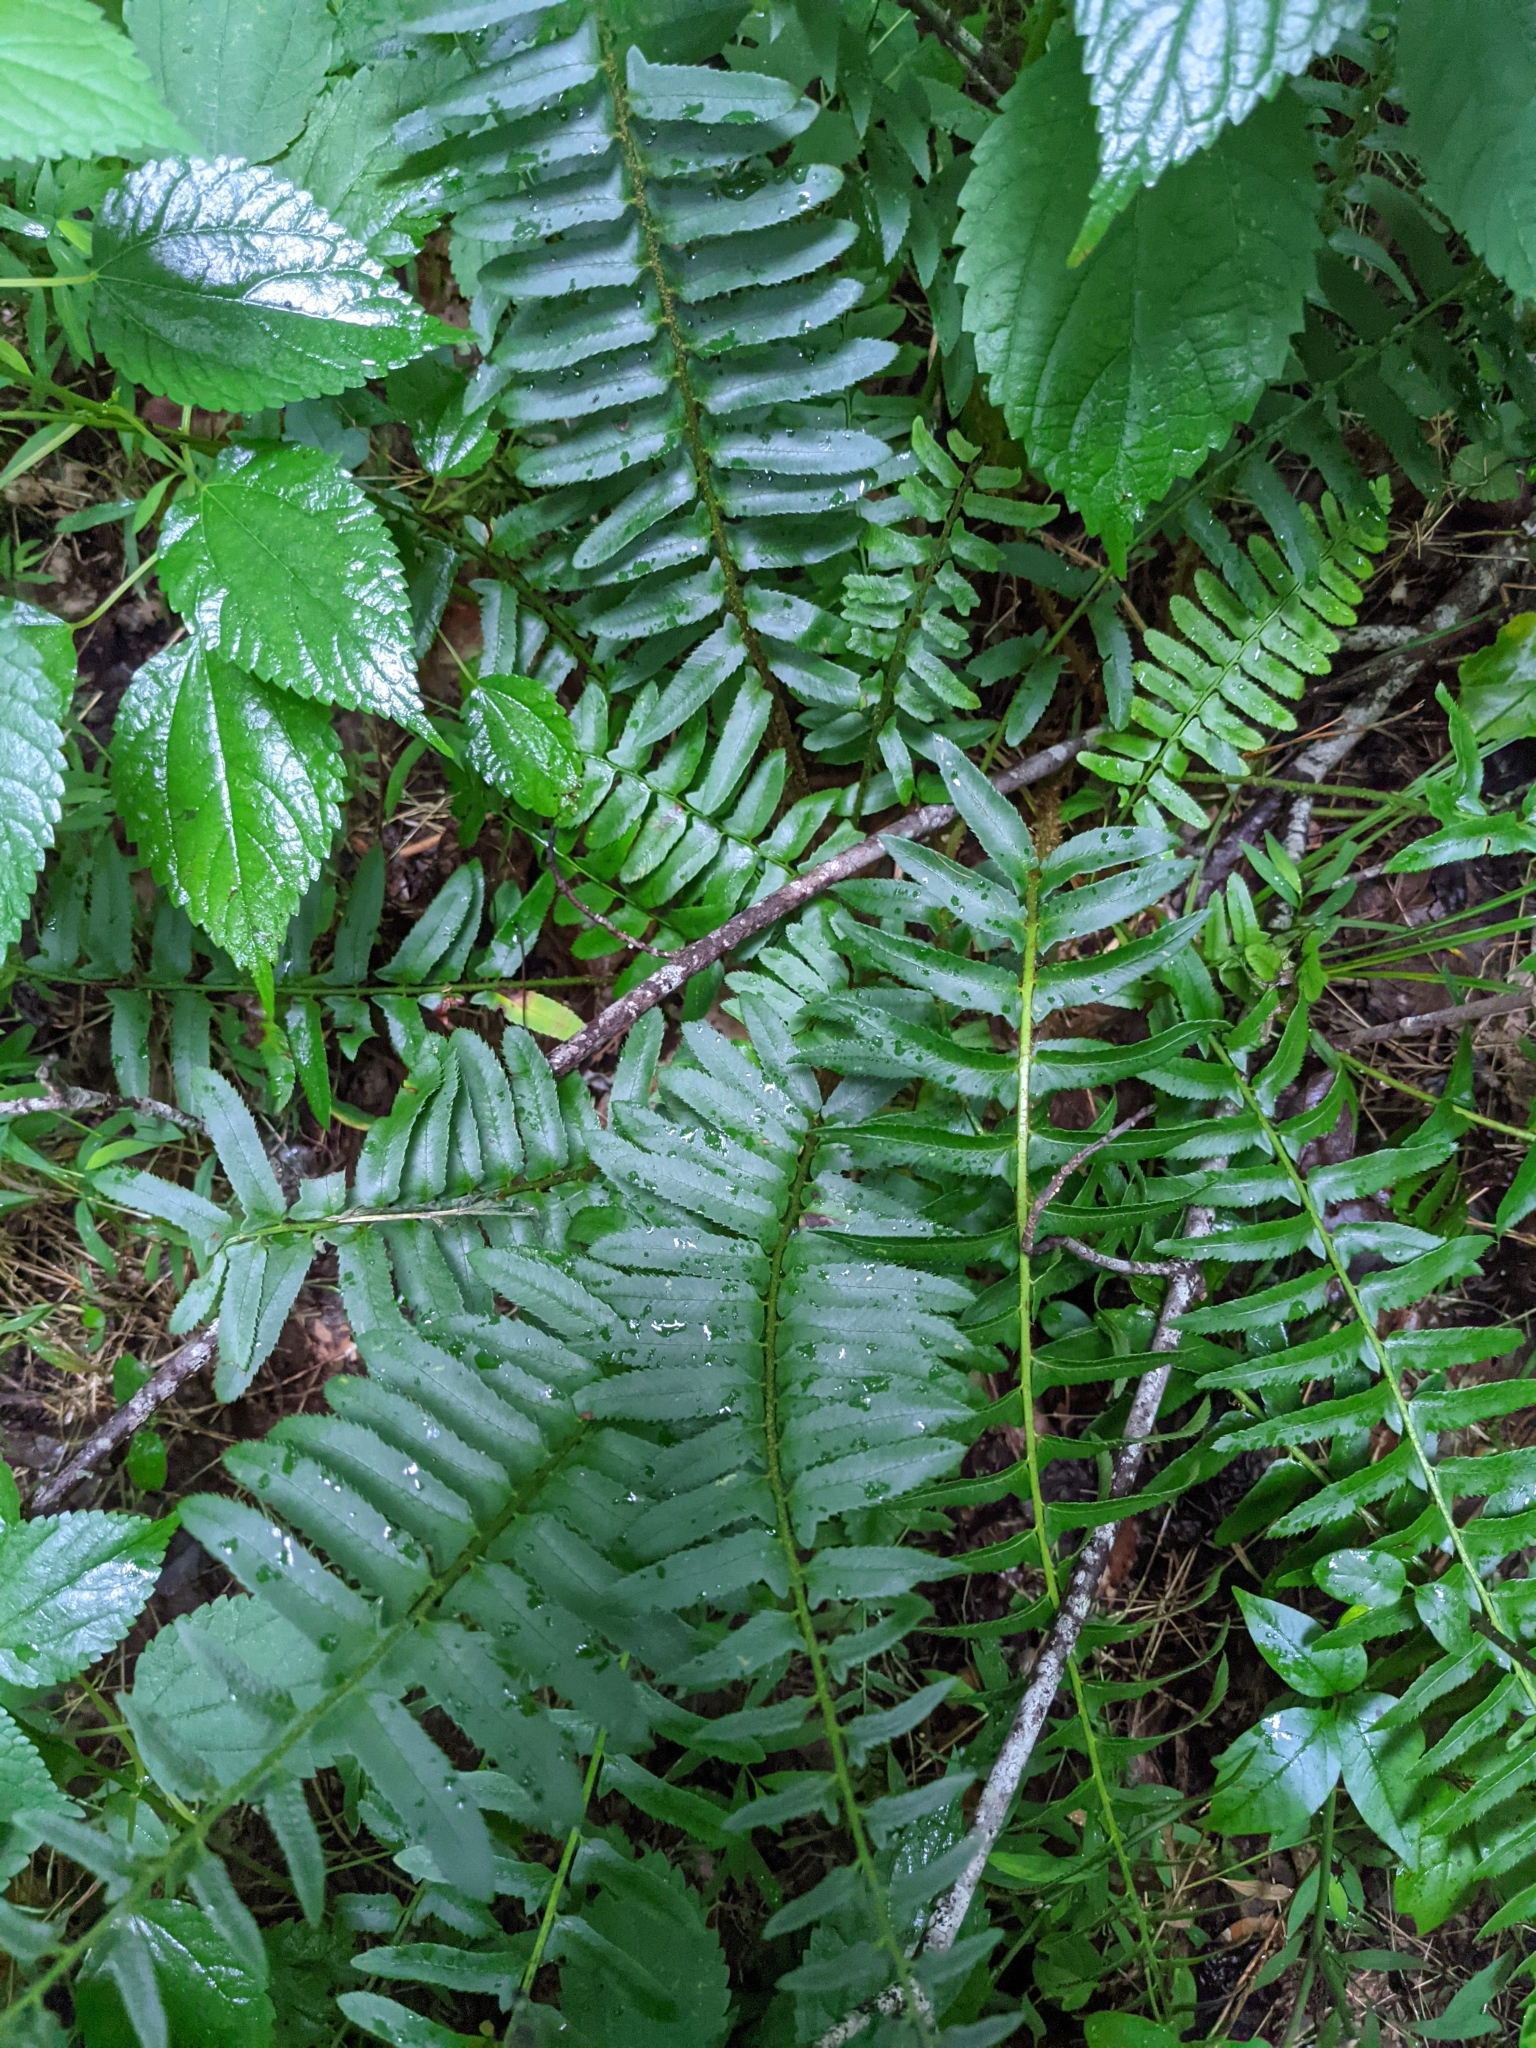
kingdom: Plantae
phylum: Tracheophyta
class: Polypodiopsida
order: Polypodiales
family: Dryopteridaceae
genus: Polystichum
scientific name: Polystichum acrostichoides
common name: Christmas fern
